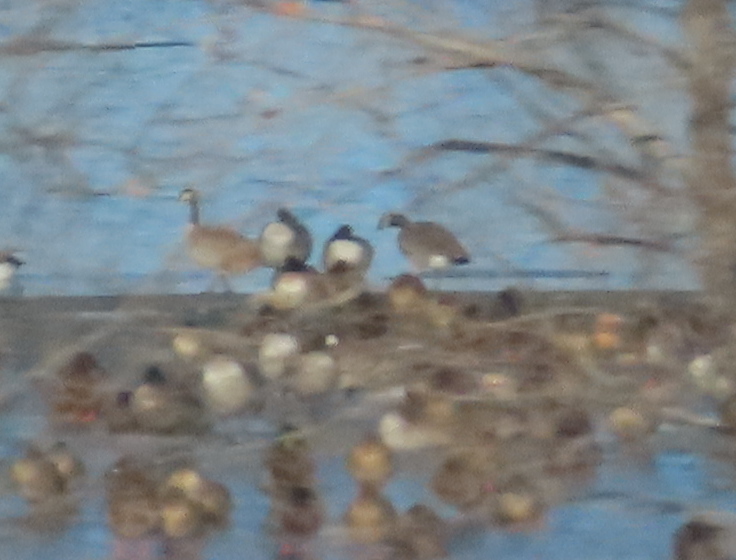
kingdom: Animalia
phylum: Chordata
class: Aves
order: Anseriformes
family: Anatidae
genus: Branta
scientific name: Branta canadensis
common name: Canada goose
